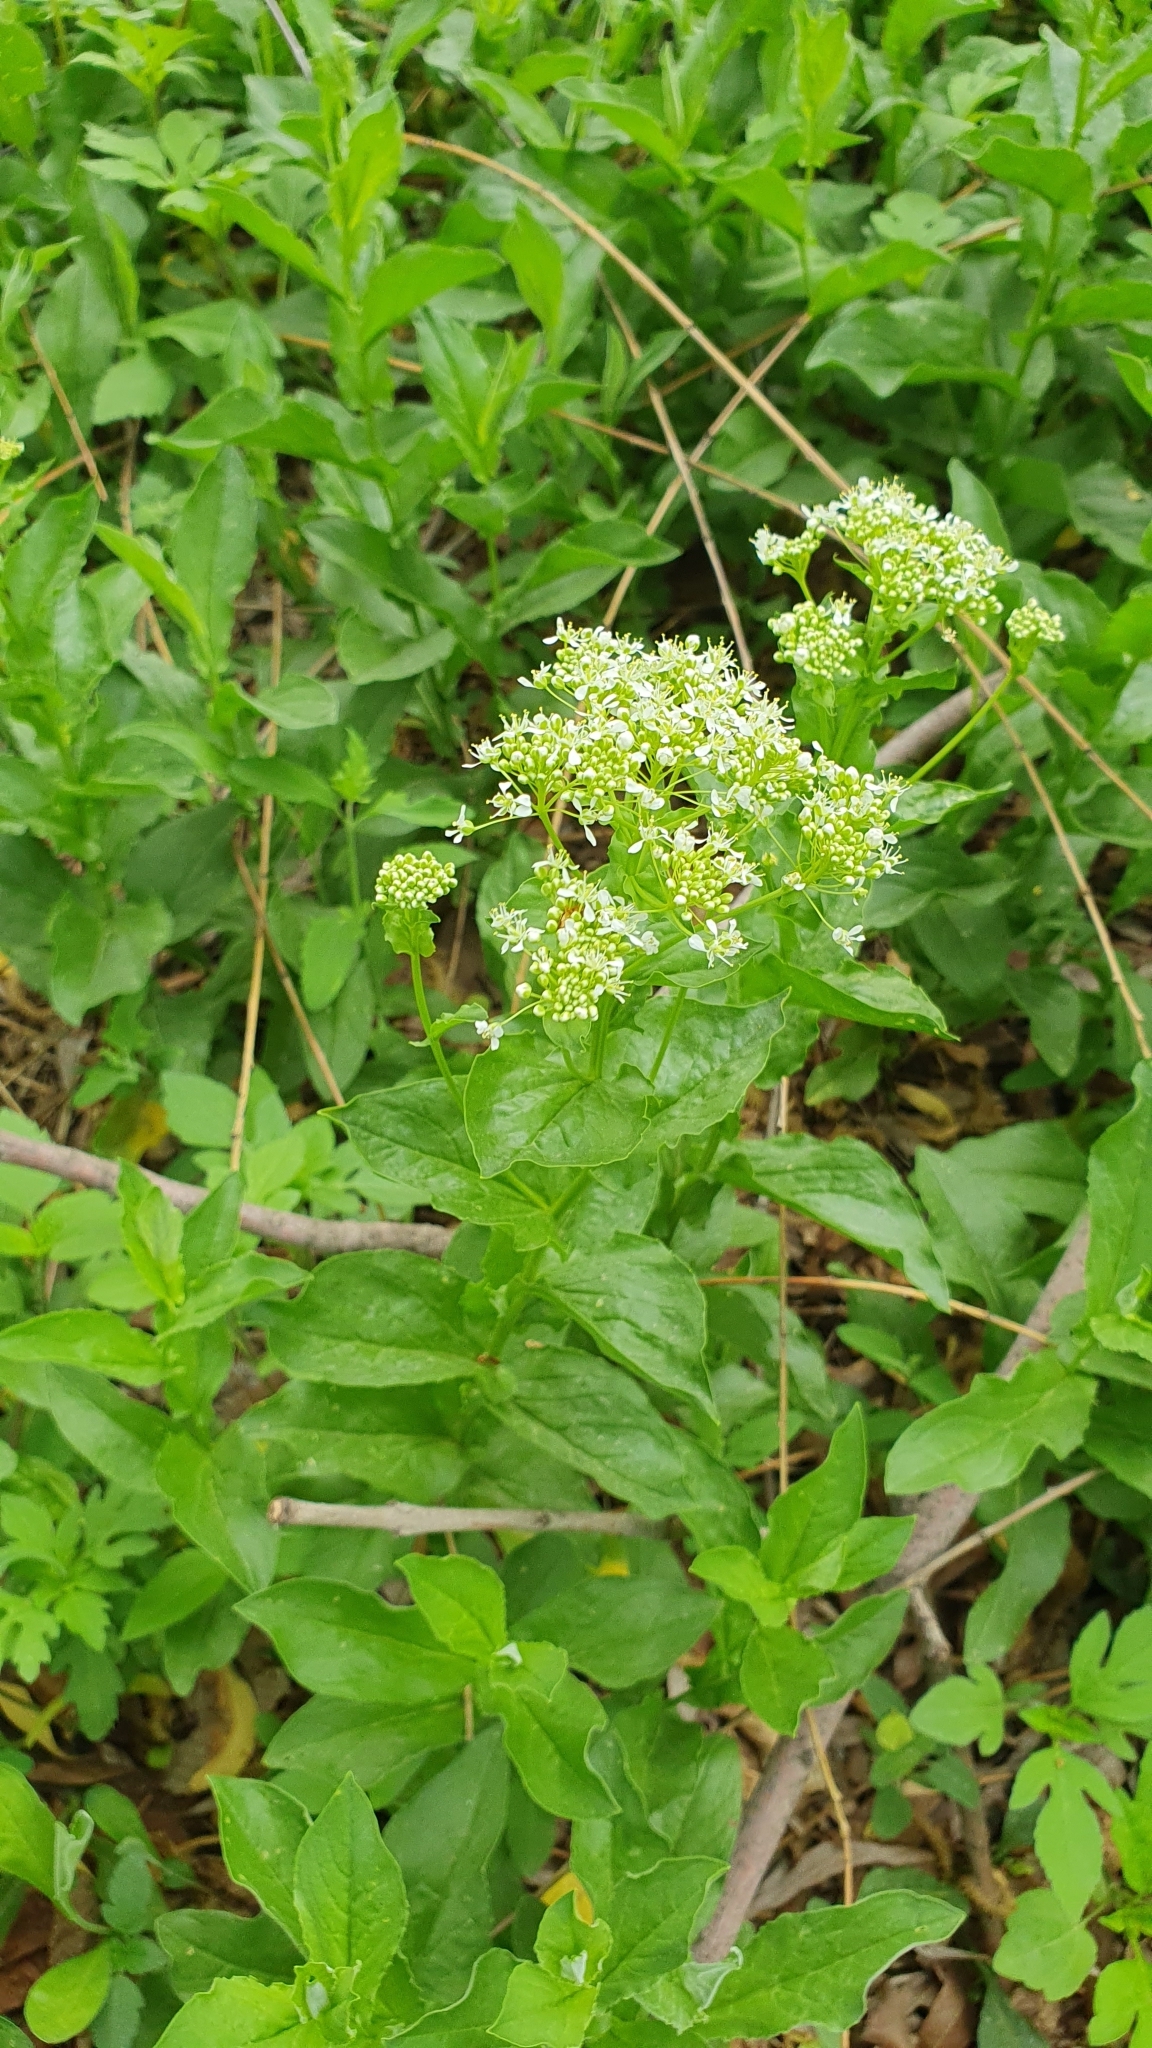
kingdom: Plantae
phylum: Tracheophyta
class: Magnoliopsida
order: Brassicales
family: Brassicaceae
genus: Lepidium
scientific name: Lepidium draba
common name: Hoary cress
